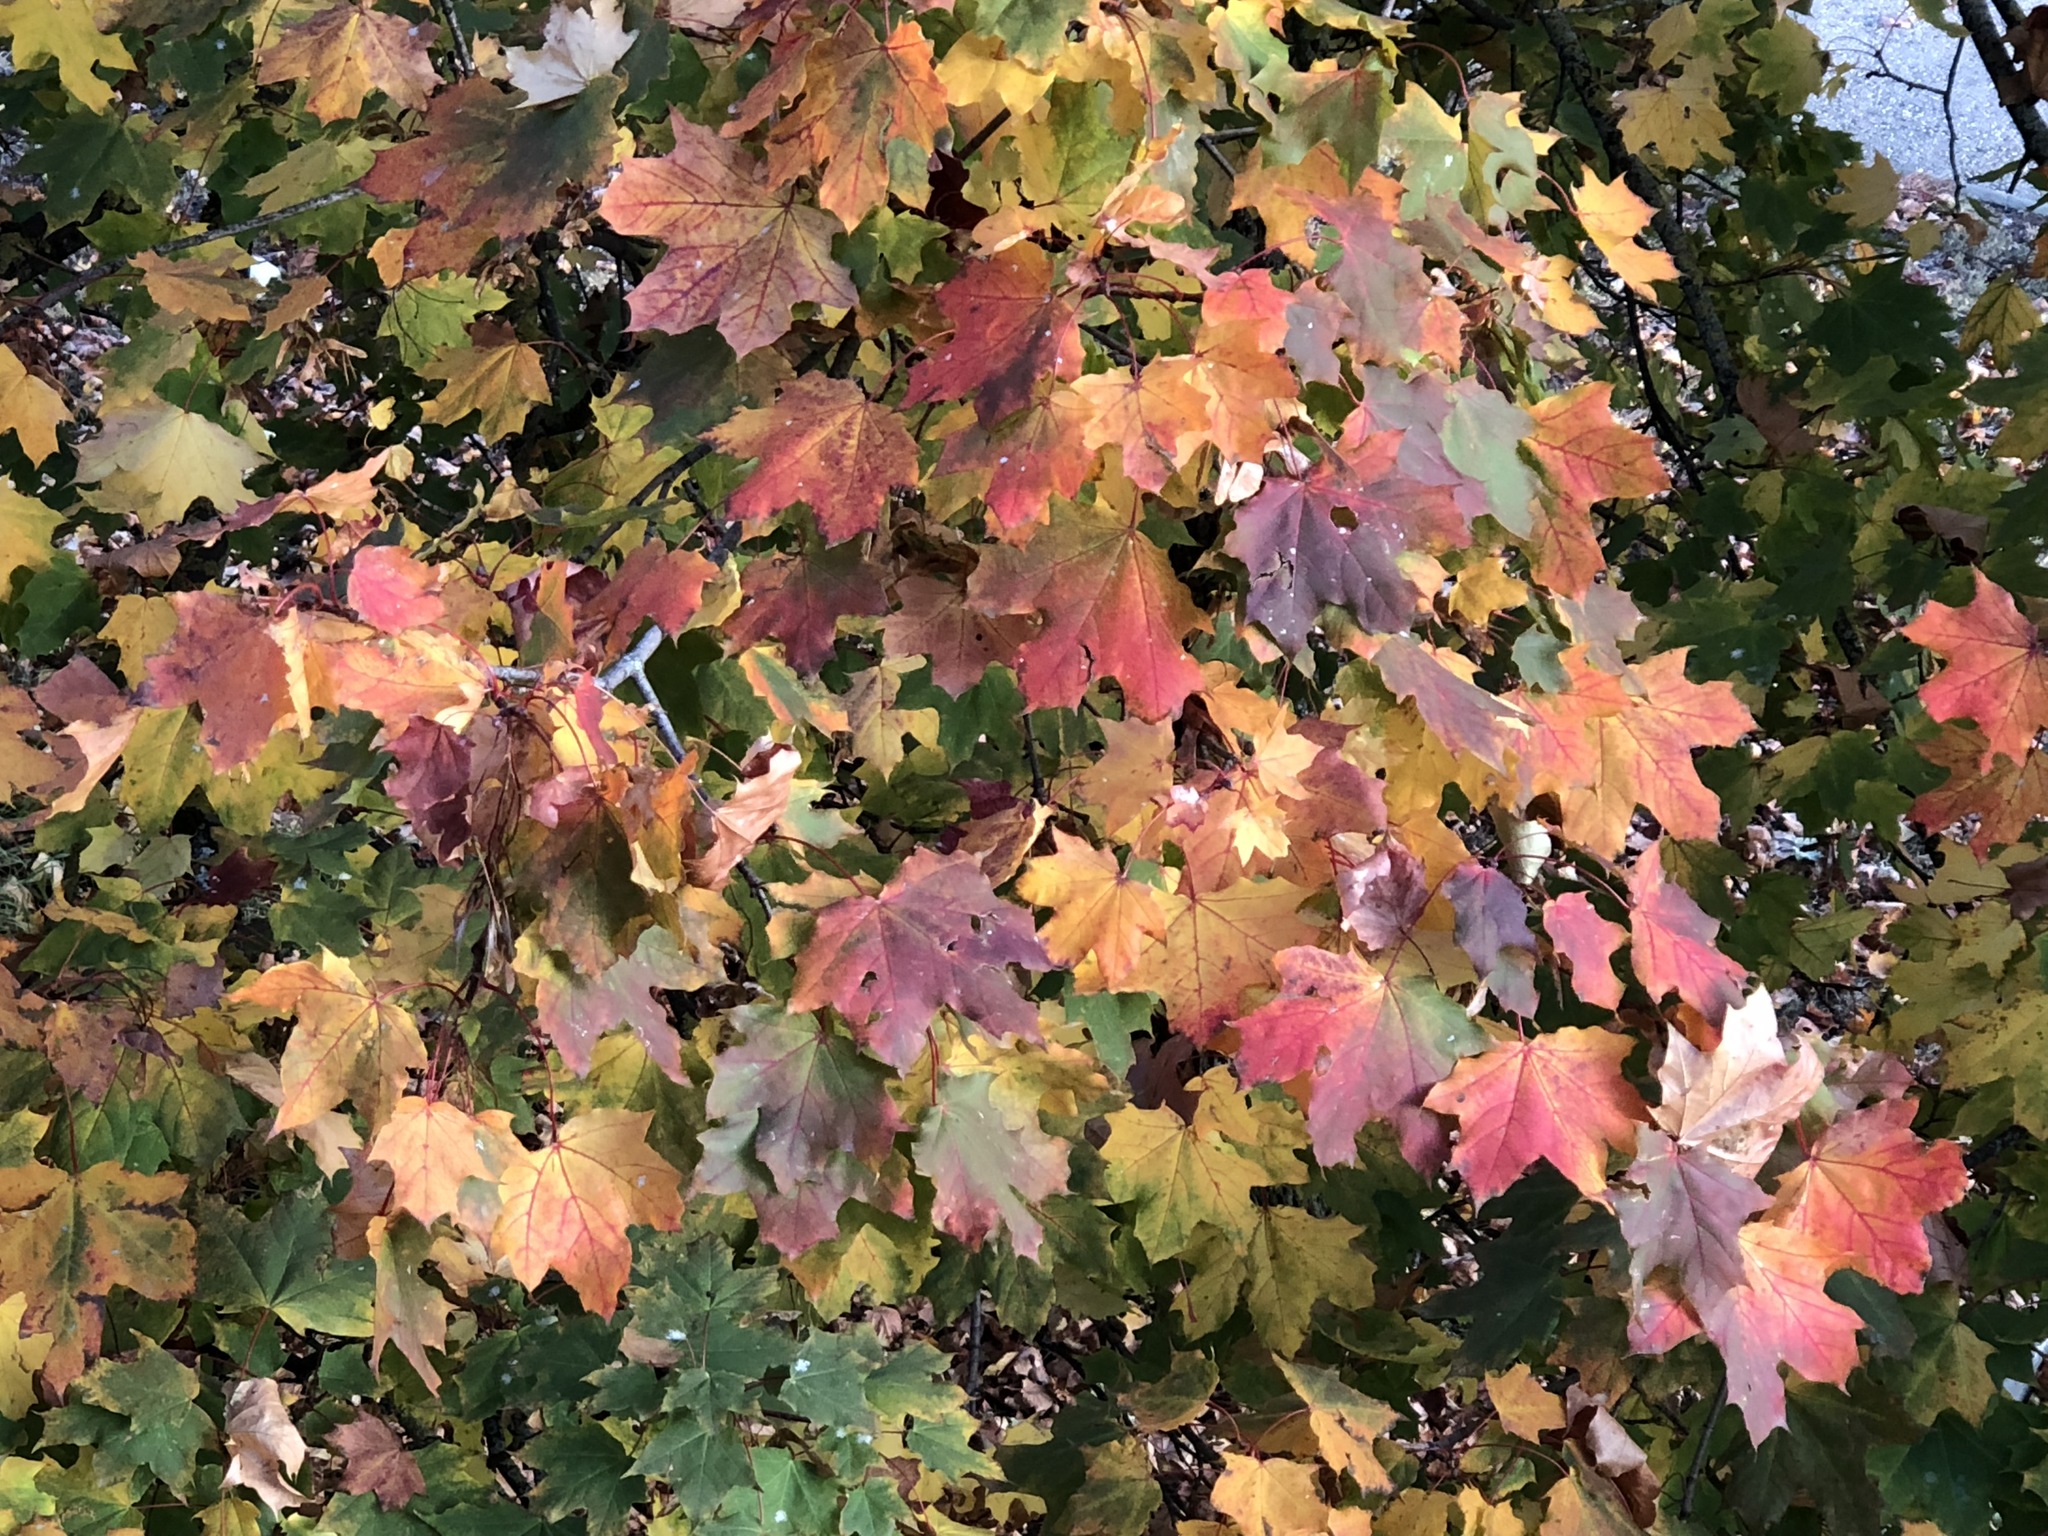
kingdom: Plantae
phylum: Tracheophyta
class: Magnoliopsida
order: Sapindales
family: Sapindaceae
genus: Acer
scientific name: Acer platanoides
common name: Norway maple
